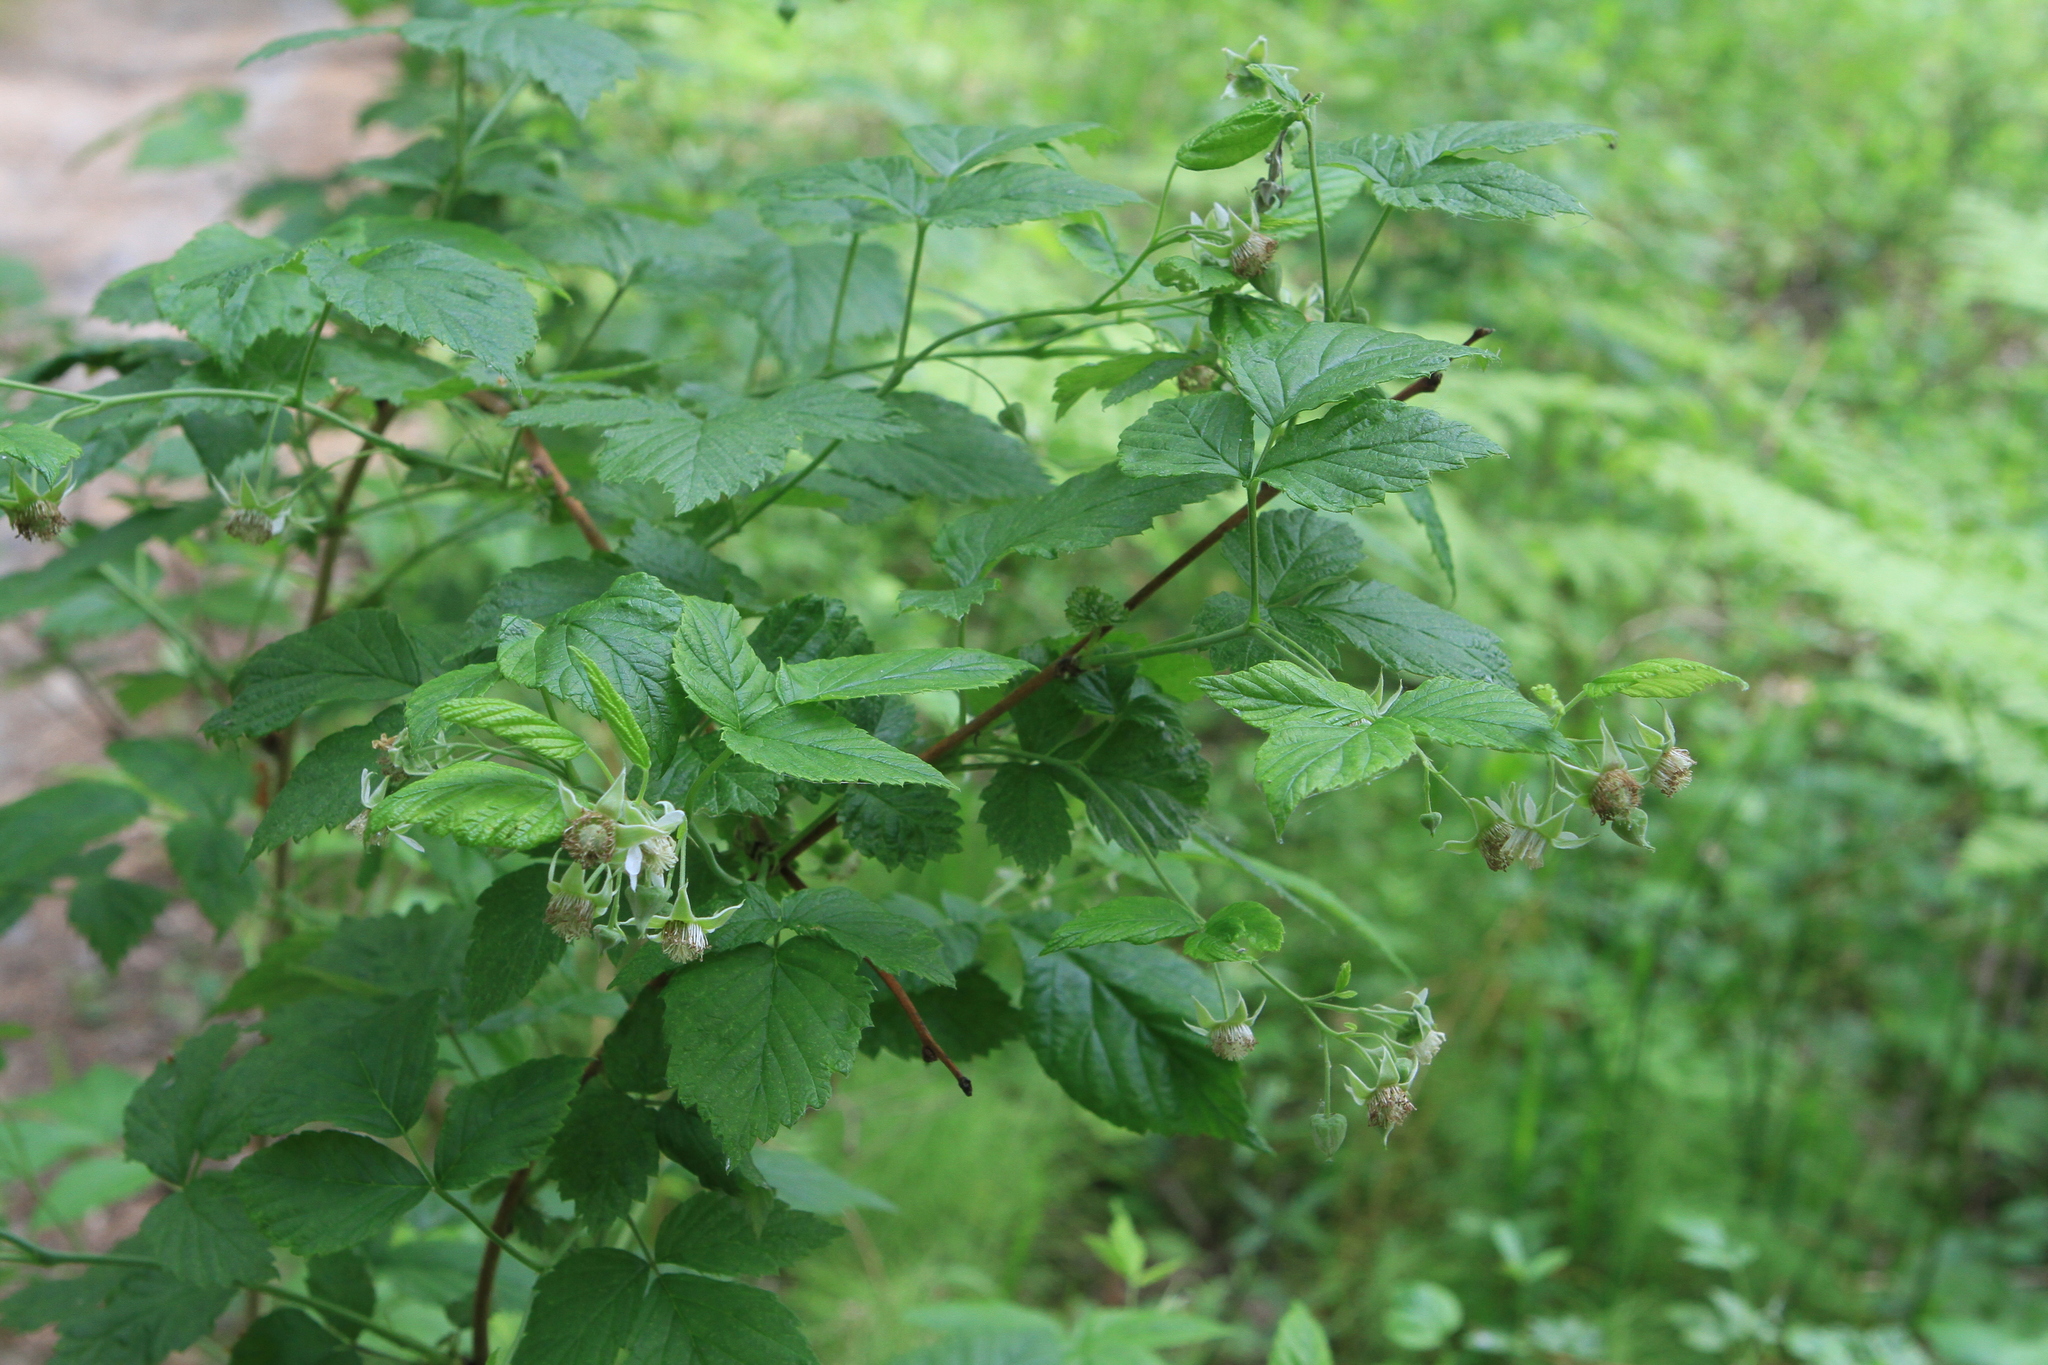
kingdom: Plantae
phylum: Tracheophyta
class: Magnoliopsida
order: Rosales
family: Rosaceae
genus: Rubus
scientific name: Rubus idaeus
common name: Raspberry
